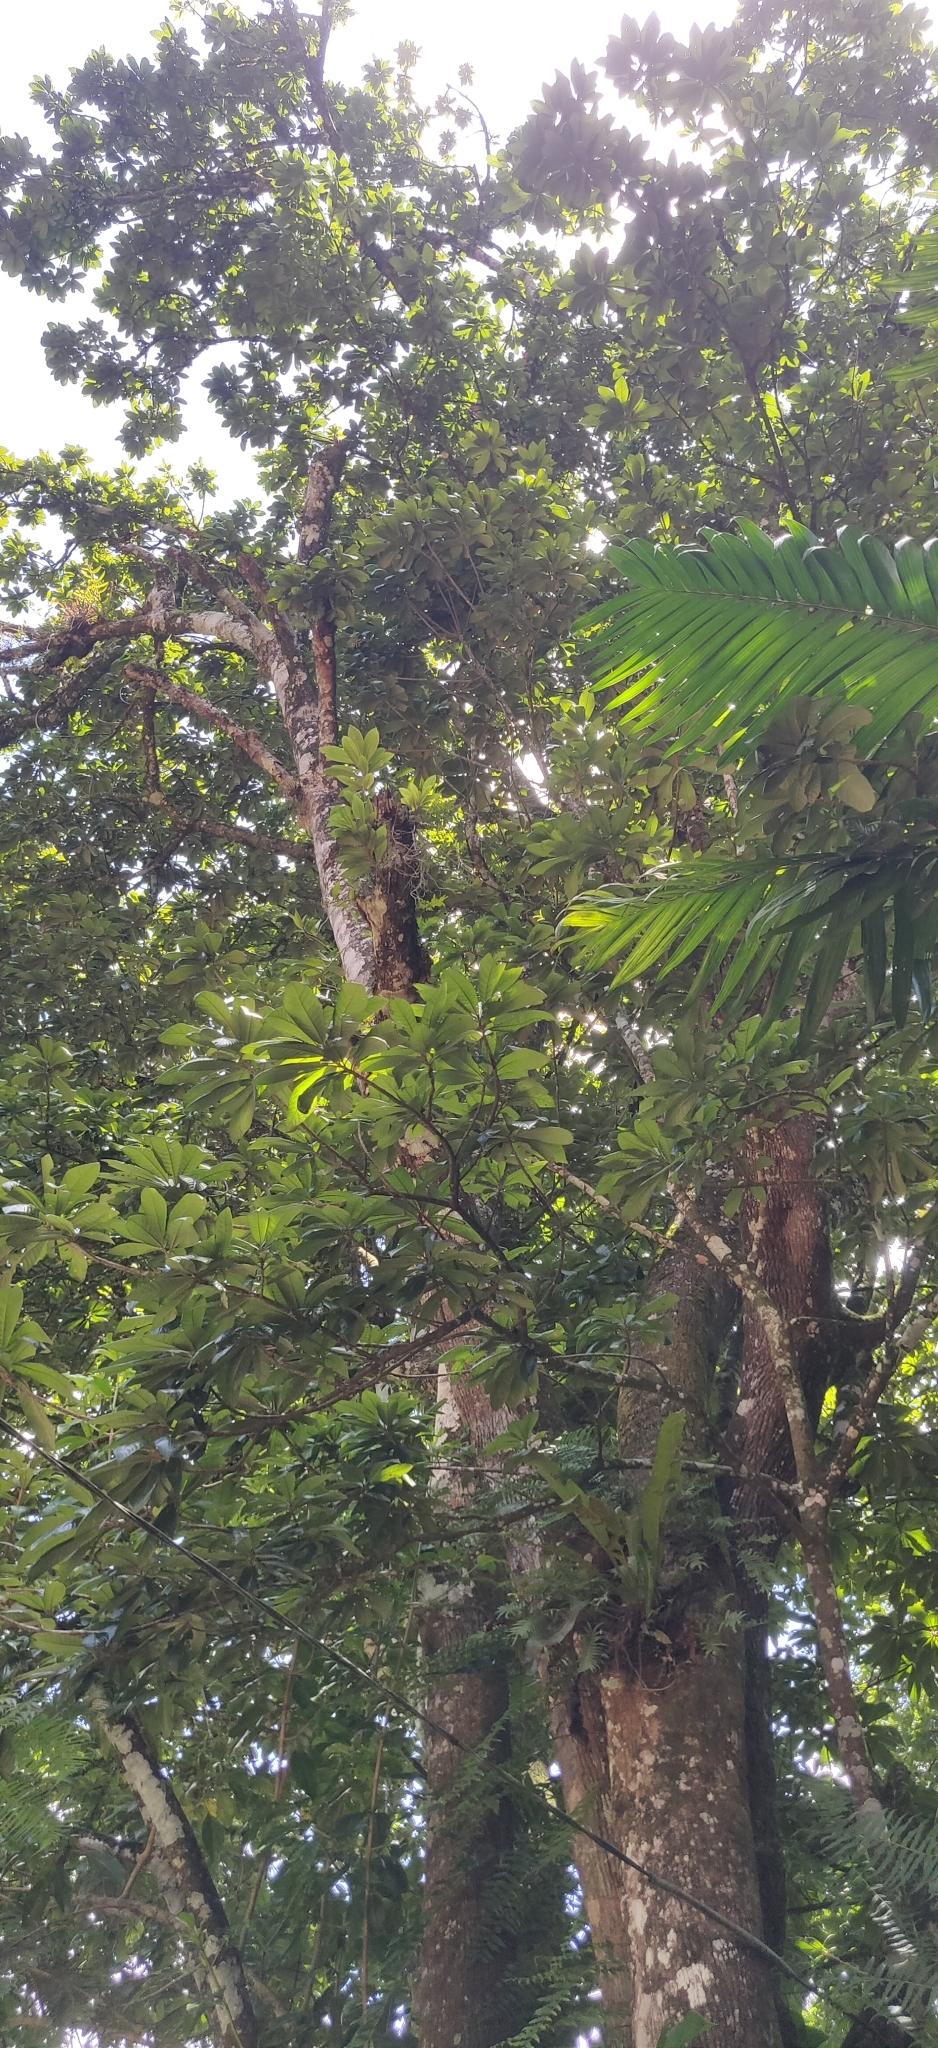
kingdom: Plantae
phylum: Tracheophyta
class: Magnoliopsida
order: Ericales
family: Sapotaceae
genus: Pouteria
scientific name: Pouteria viridis
